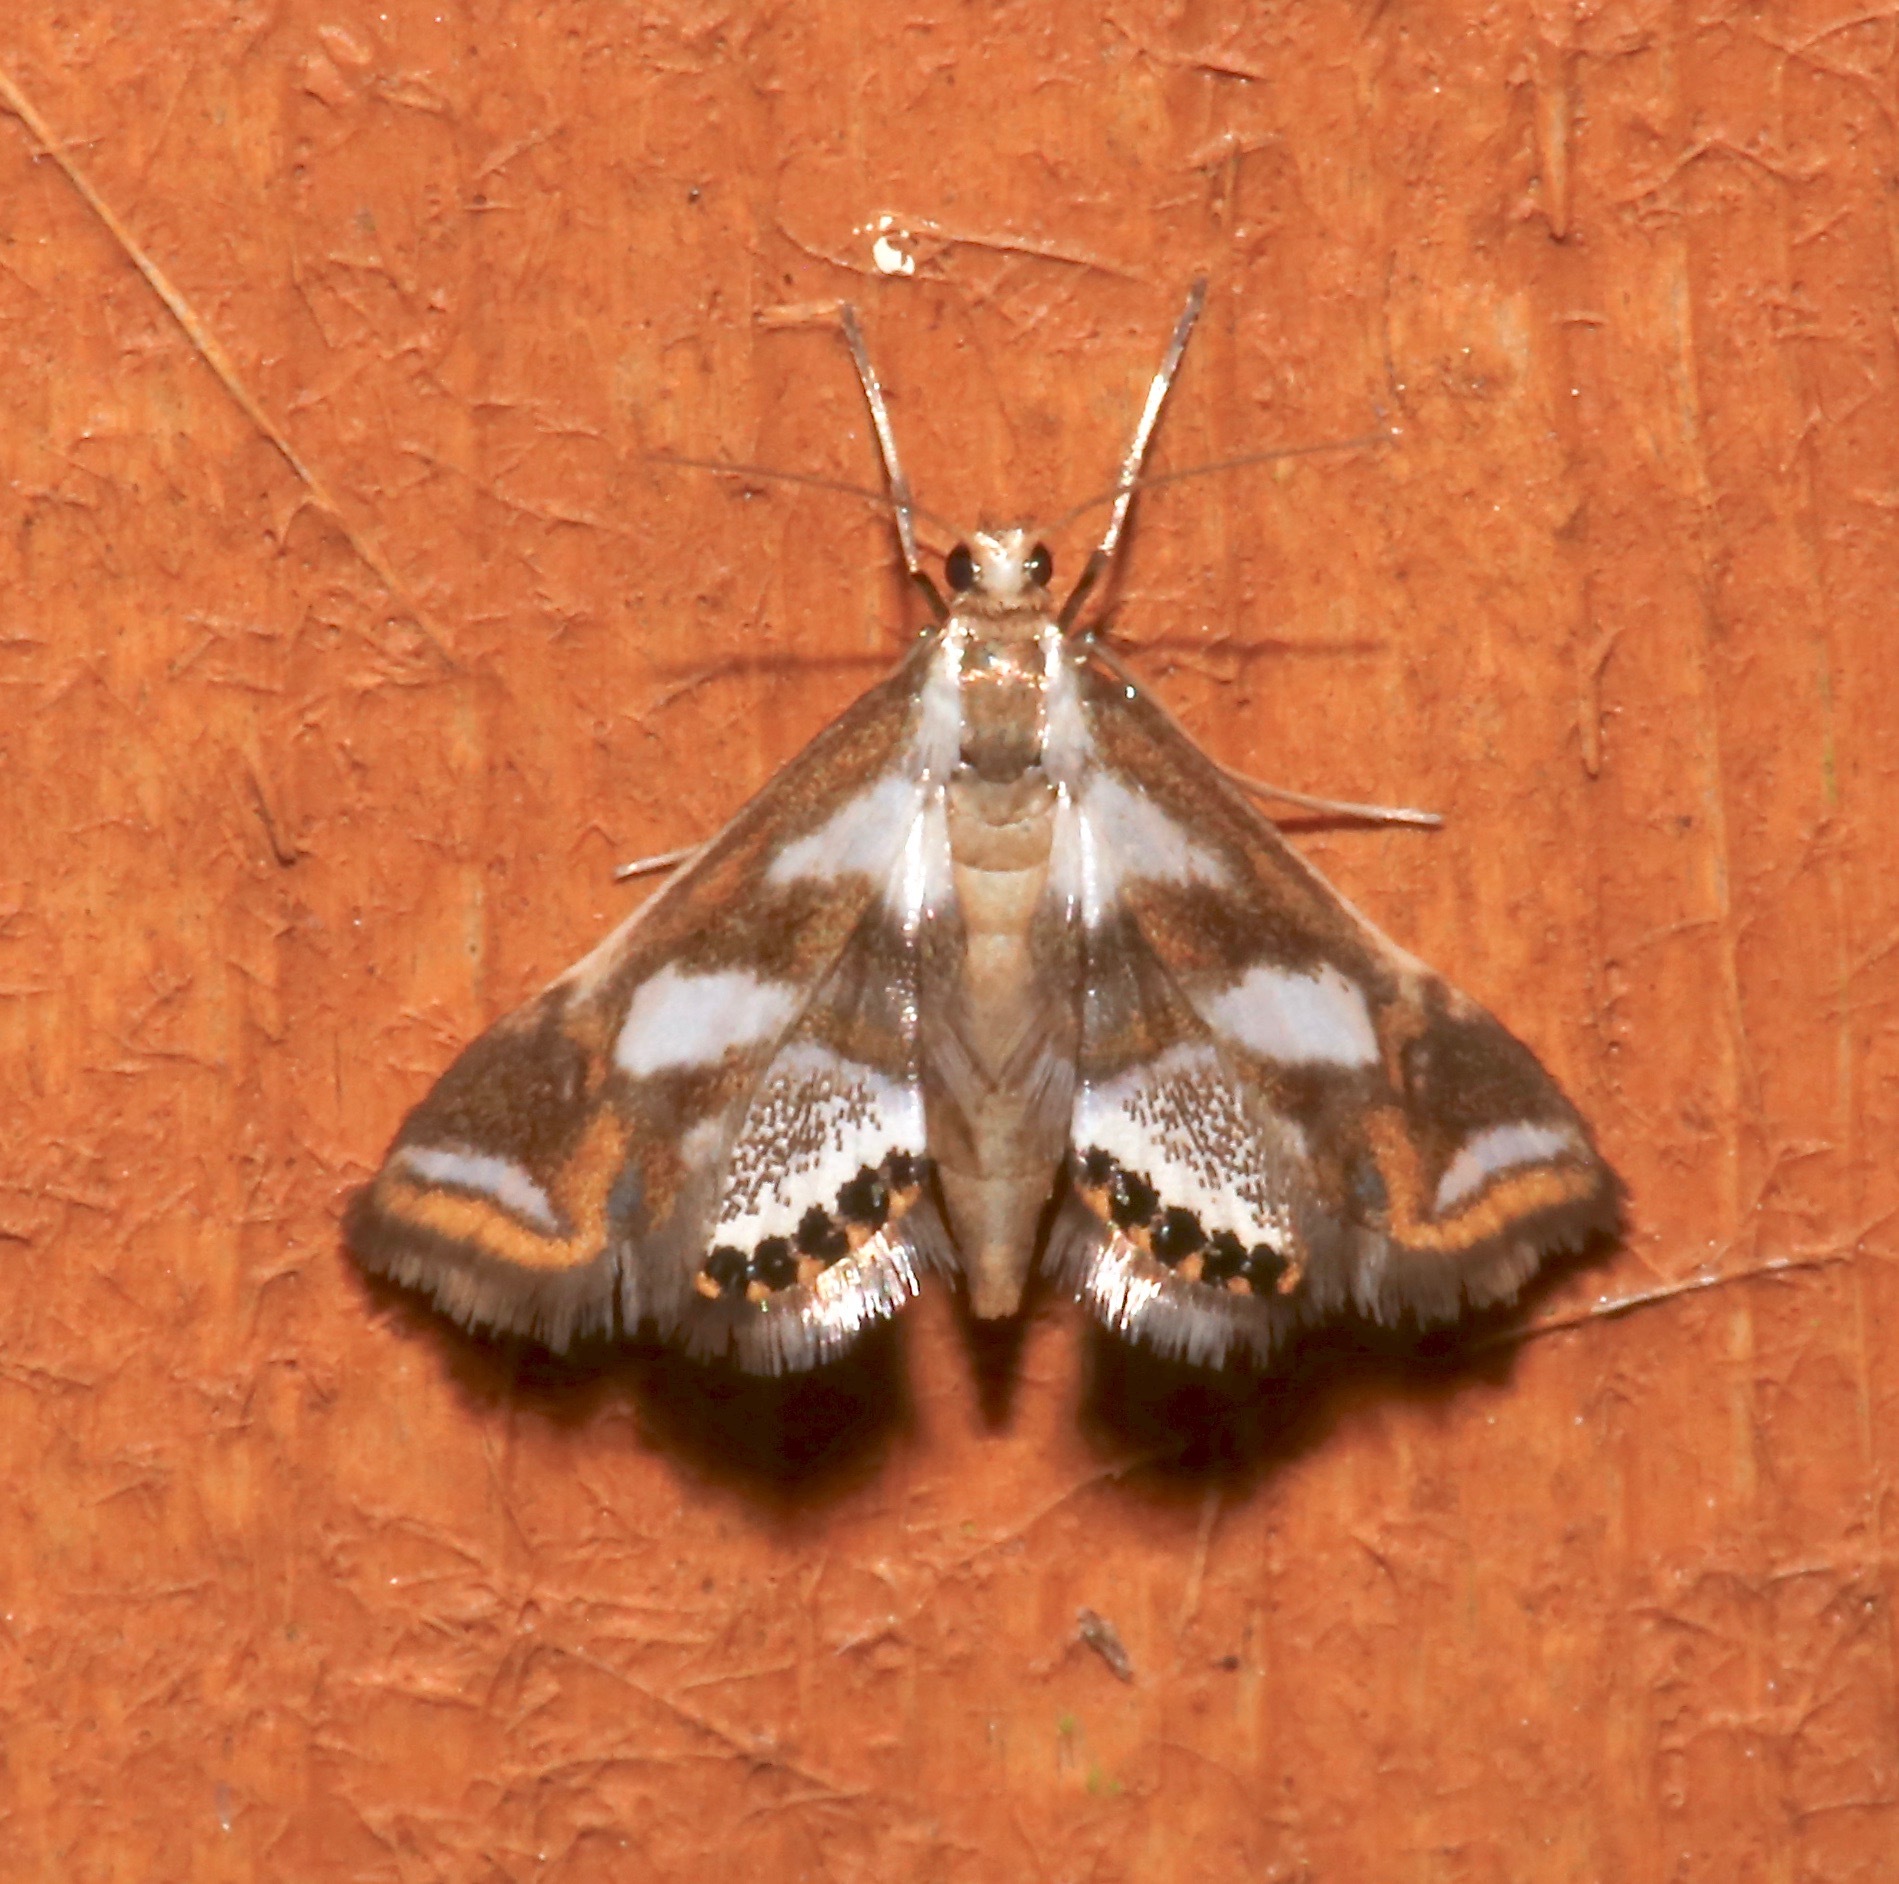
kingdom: Animalia
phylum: Arthropoda
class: Insecta
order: Lepidoptera
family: Crambidae
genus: Chrysendeton
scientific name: Chrysendeton imitabilis
